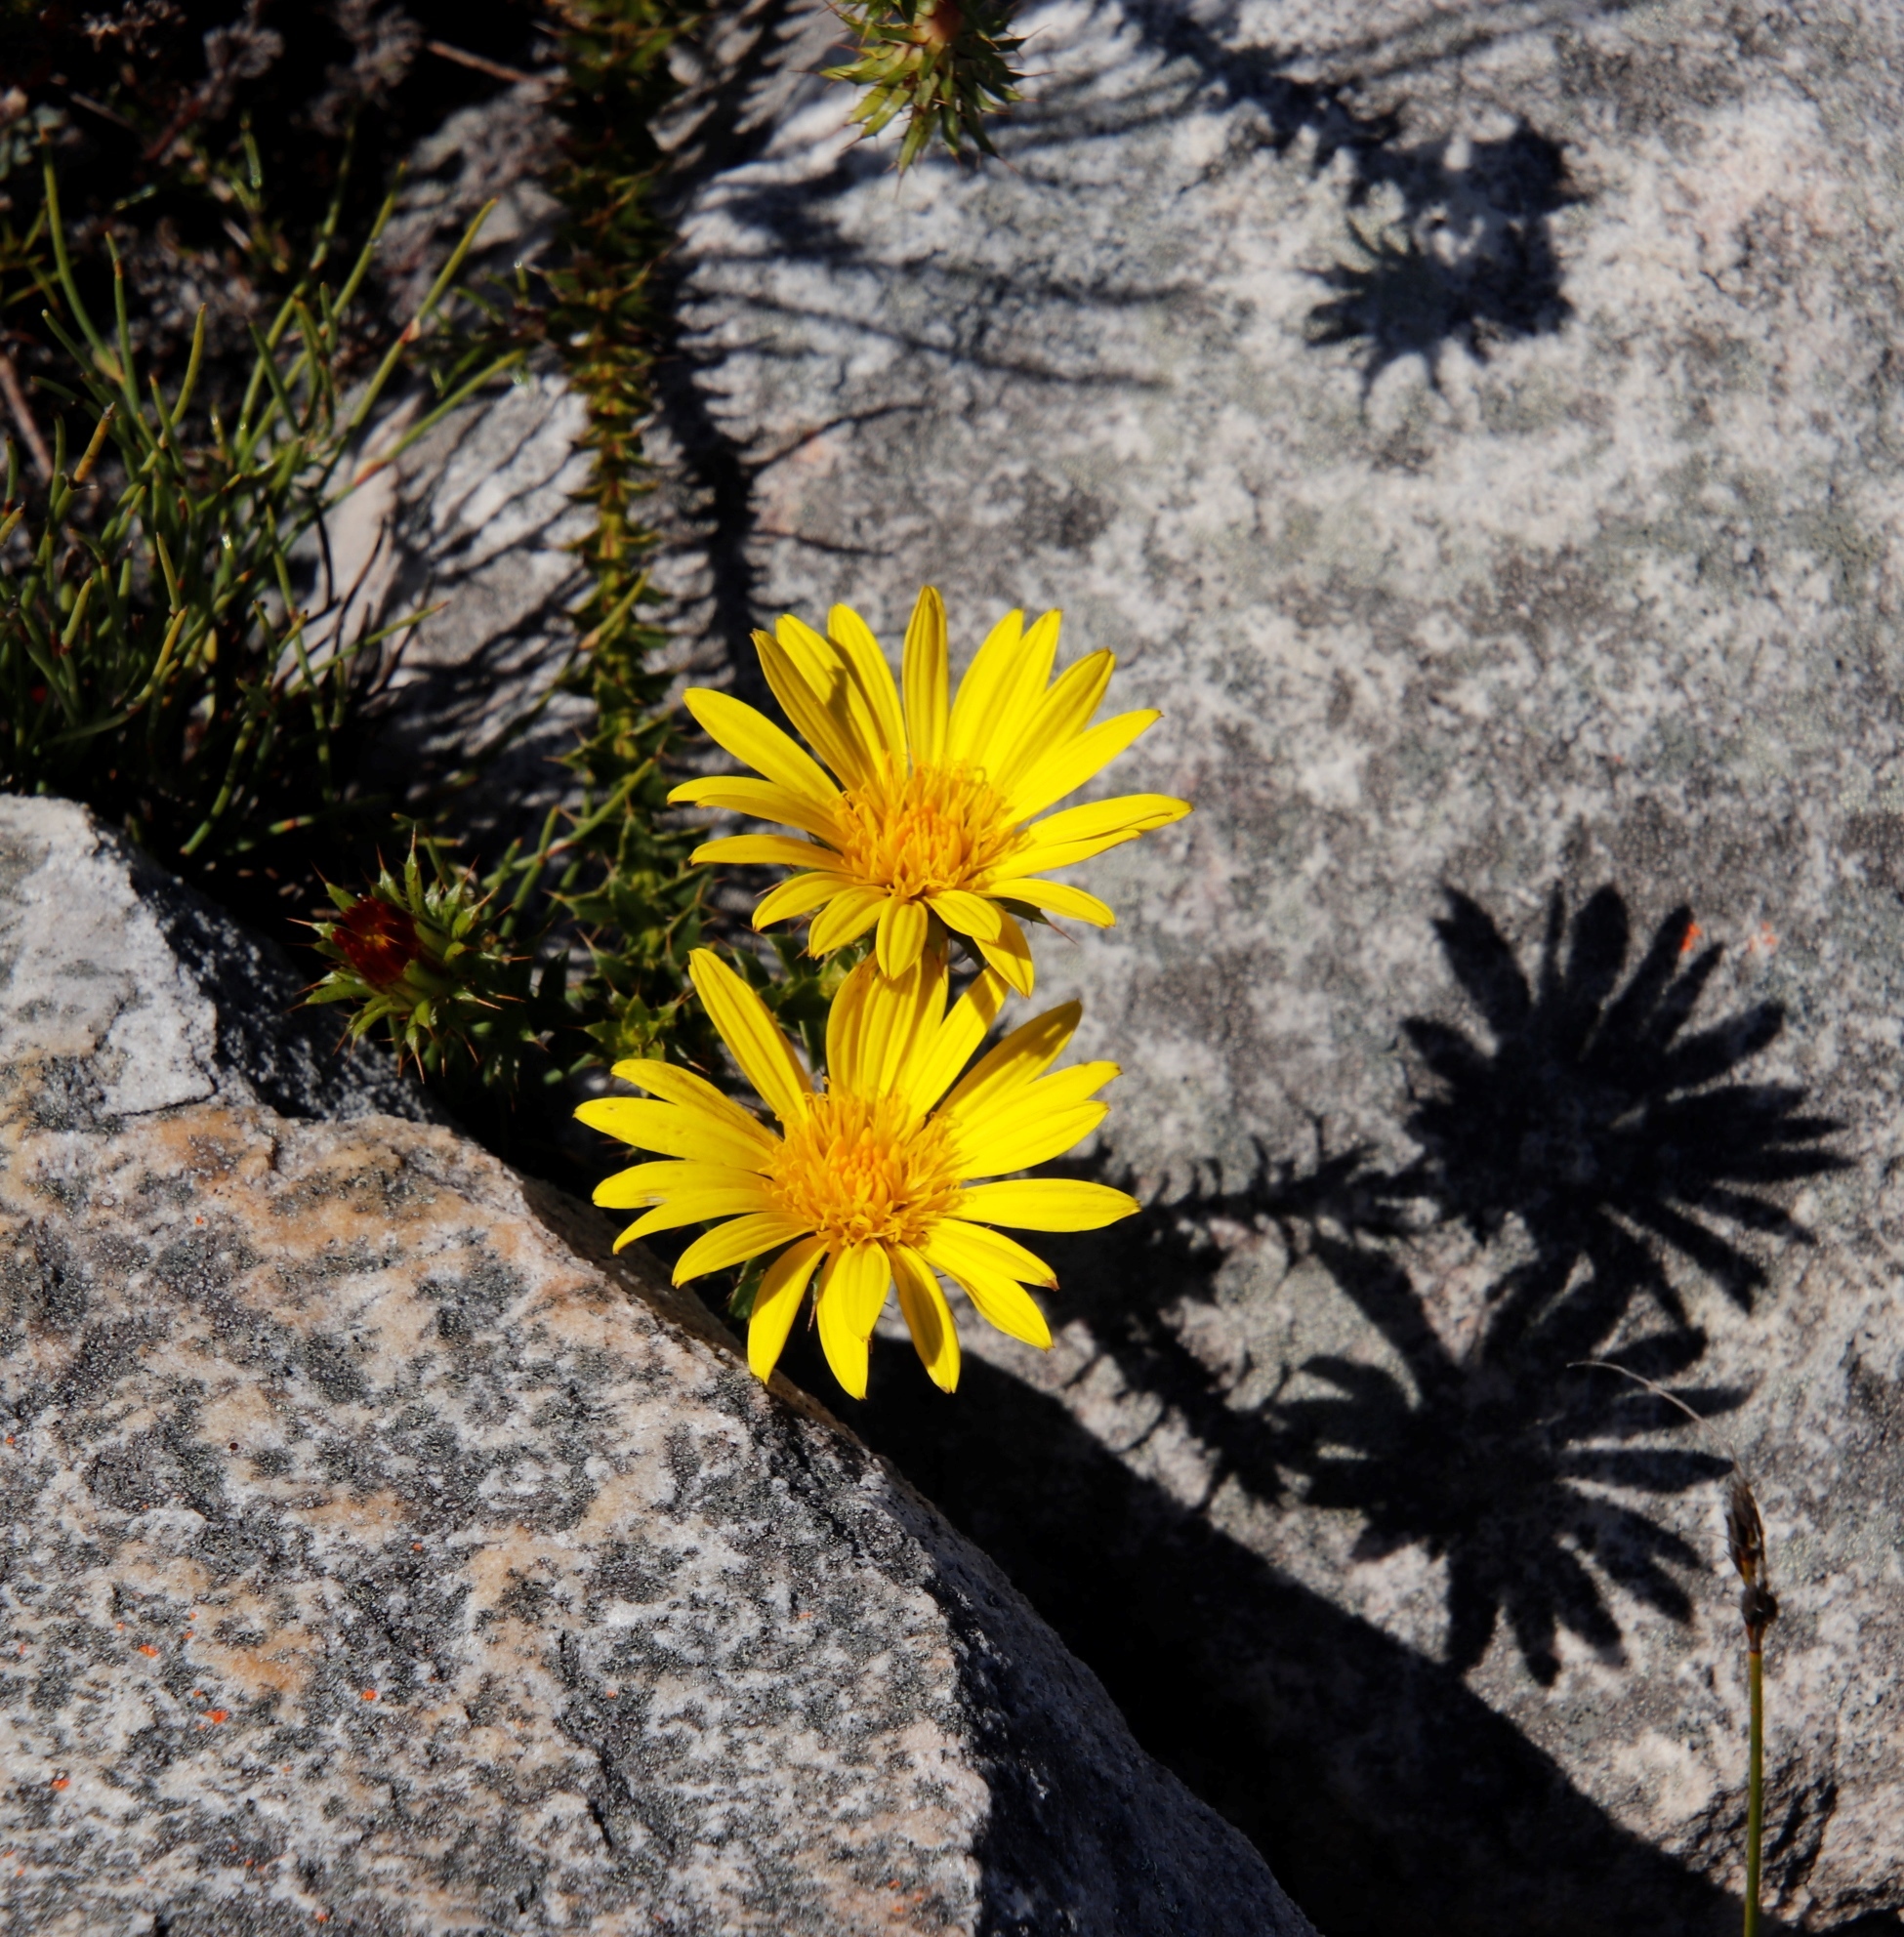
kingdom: Plantae
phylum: Tracheophyta
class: Magnoliopsida
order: Asterales
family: Asteraceae
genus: Cullumia
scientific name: Cullumia setosa
